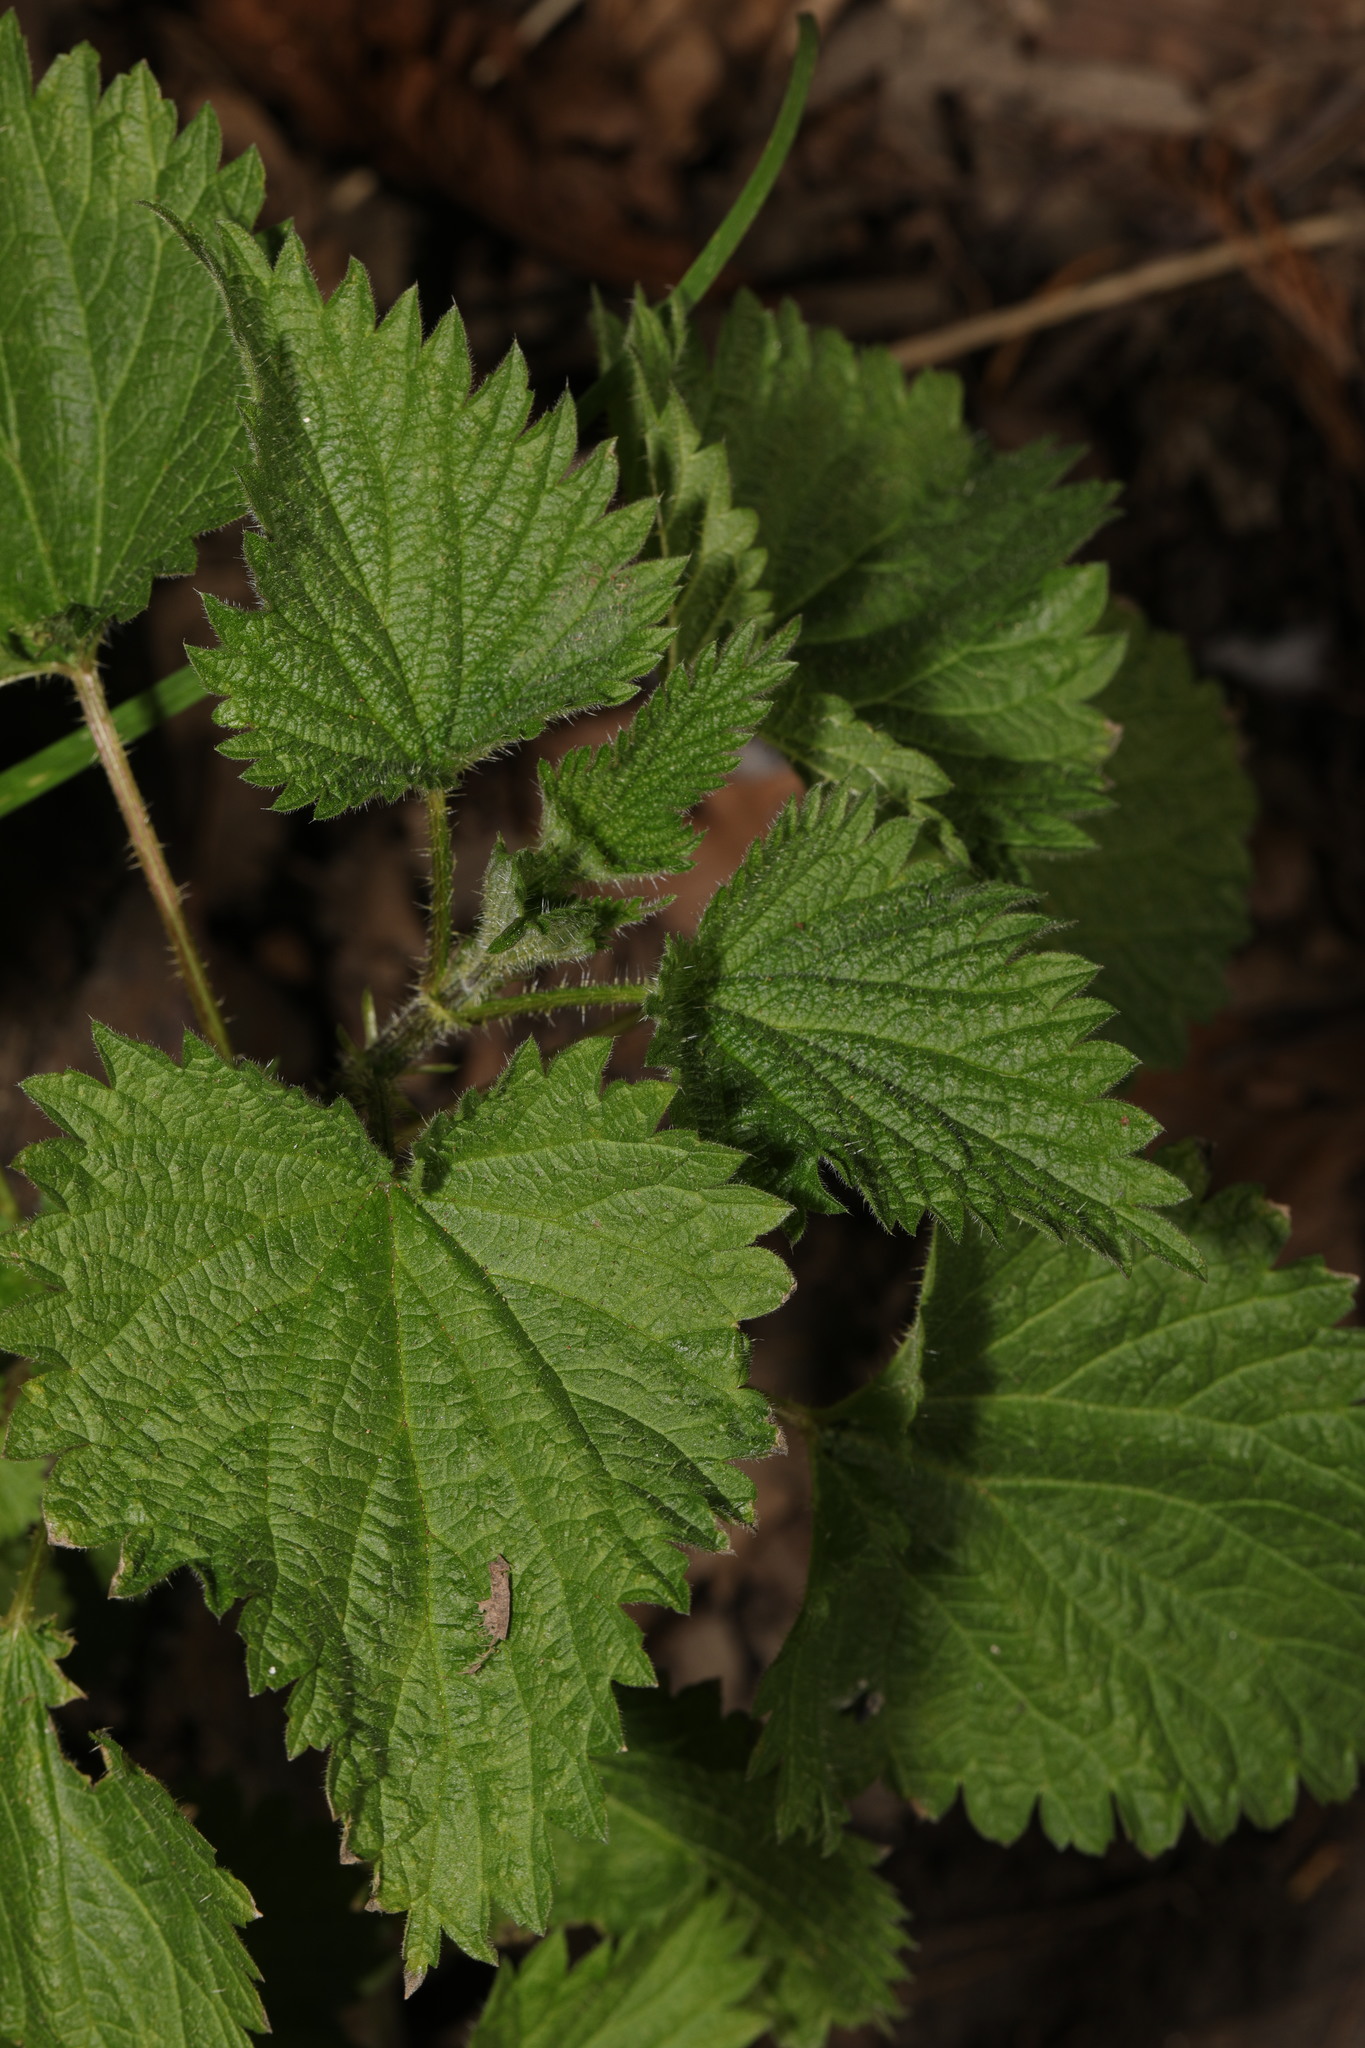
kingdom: Plantae
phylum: Tracheophyta
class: Magnoliopsida
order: Rosales
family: Urticaceae
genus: Urtica
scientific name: Urtica dioica
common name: Common nettle
